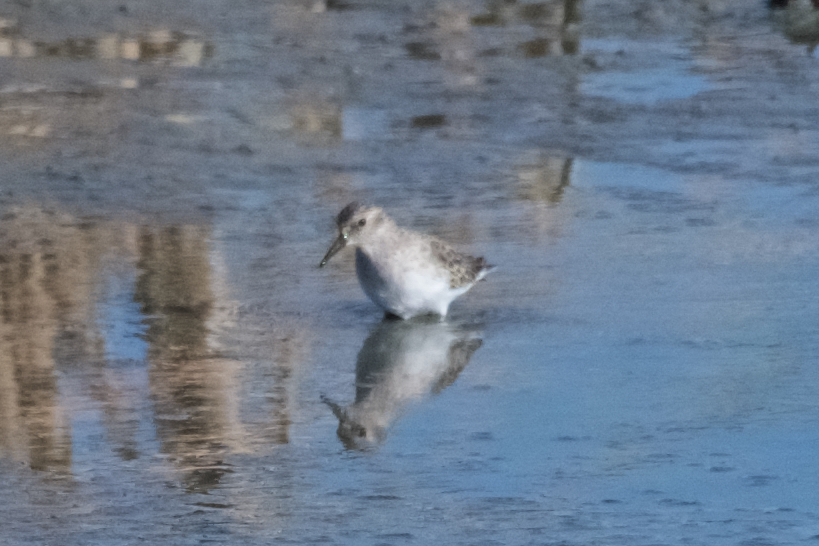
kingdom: Animalia
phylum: Chordata
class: Aves
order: Charadriiformes
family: Scolopacidae
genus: Calidris
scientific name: Calidris minutilla
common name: Least sandpiper
